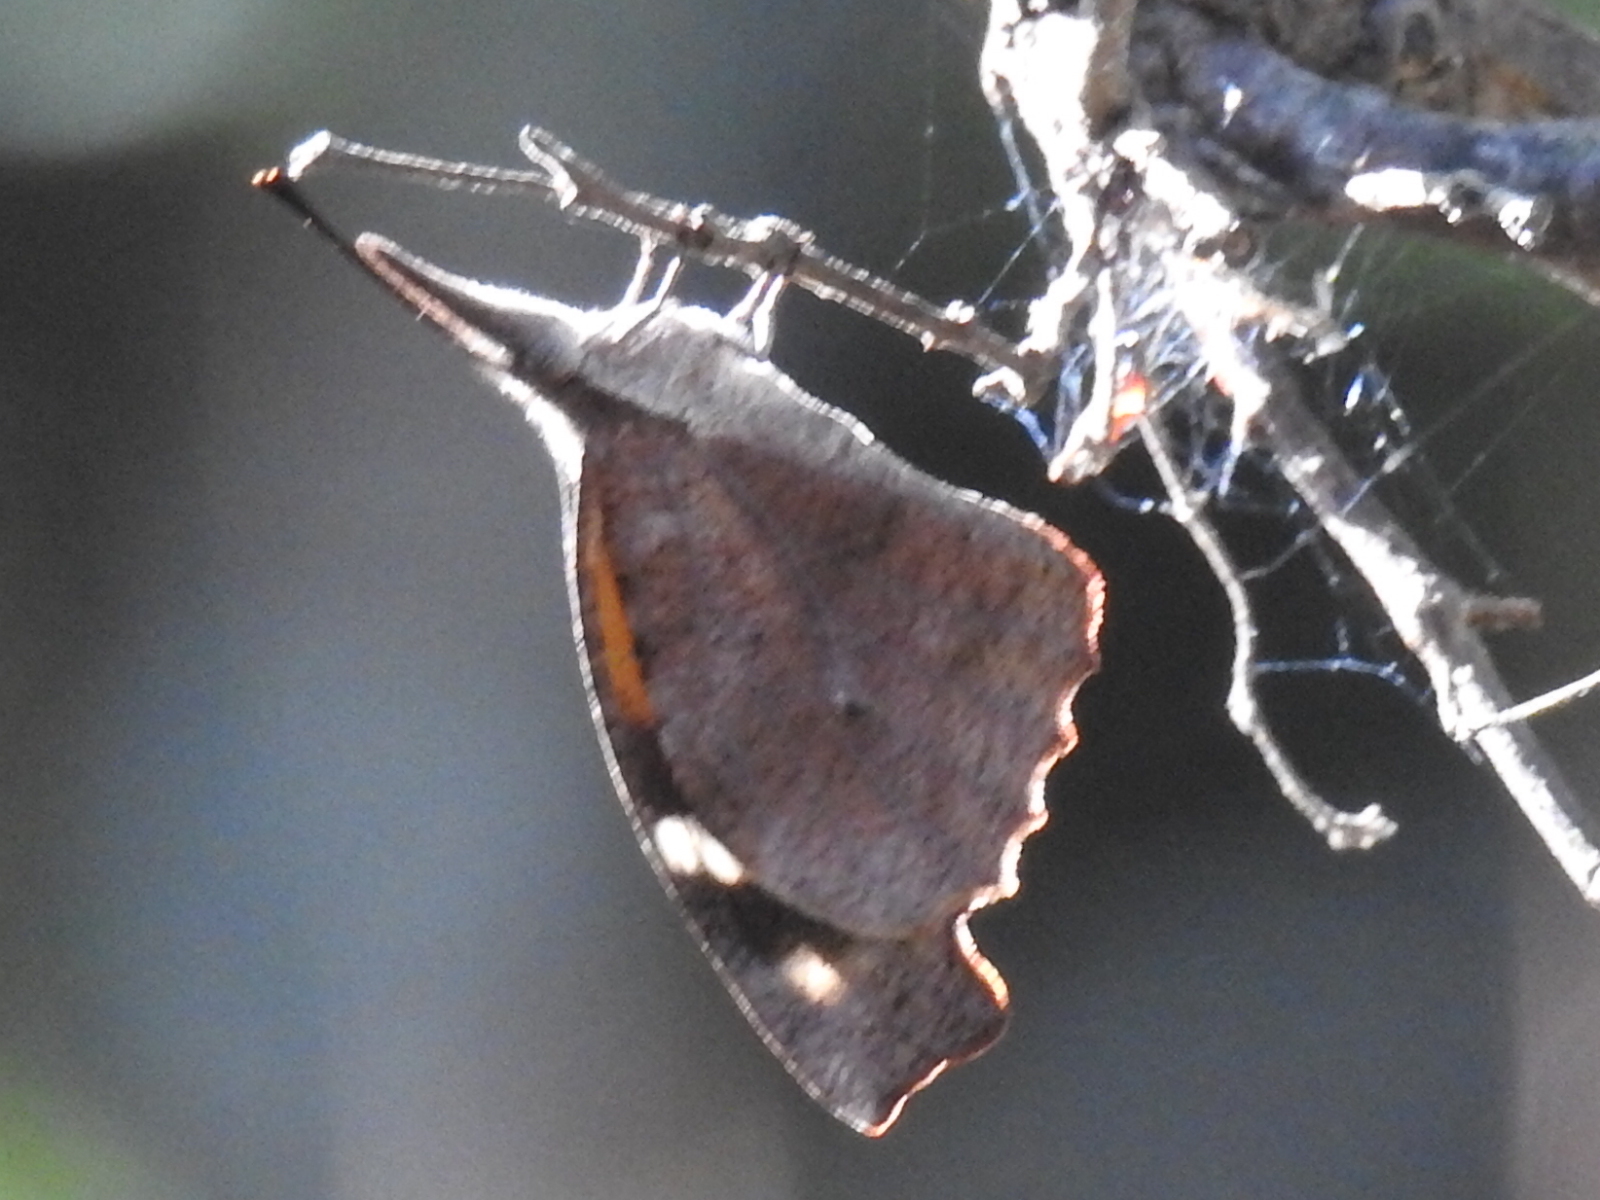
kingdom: Animalia
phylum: Arthropoda
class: Insecta
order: Lepidoptera
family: Nymphalidae
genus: Libytheana
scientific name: Libytheana carinenta
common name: American snout
